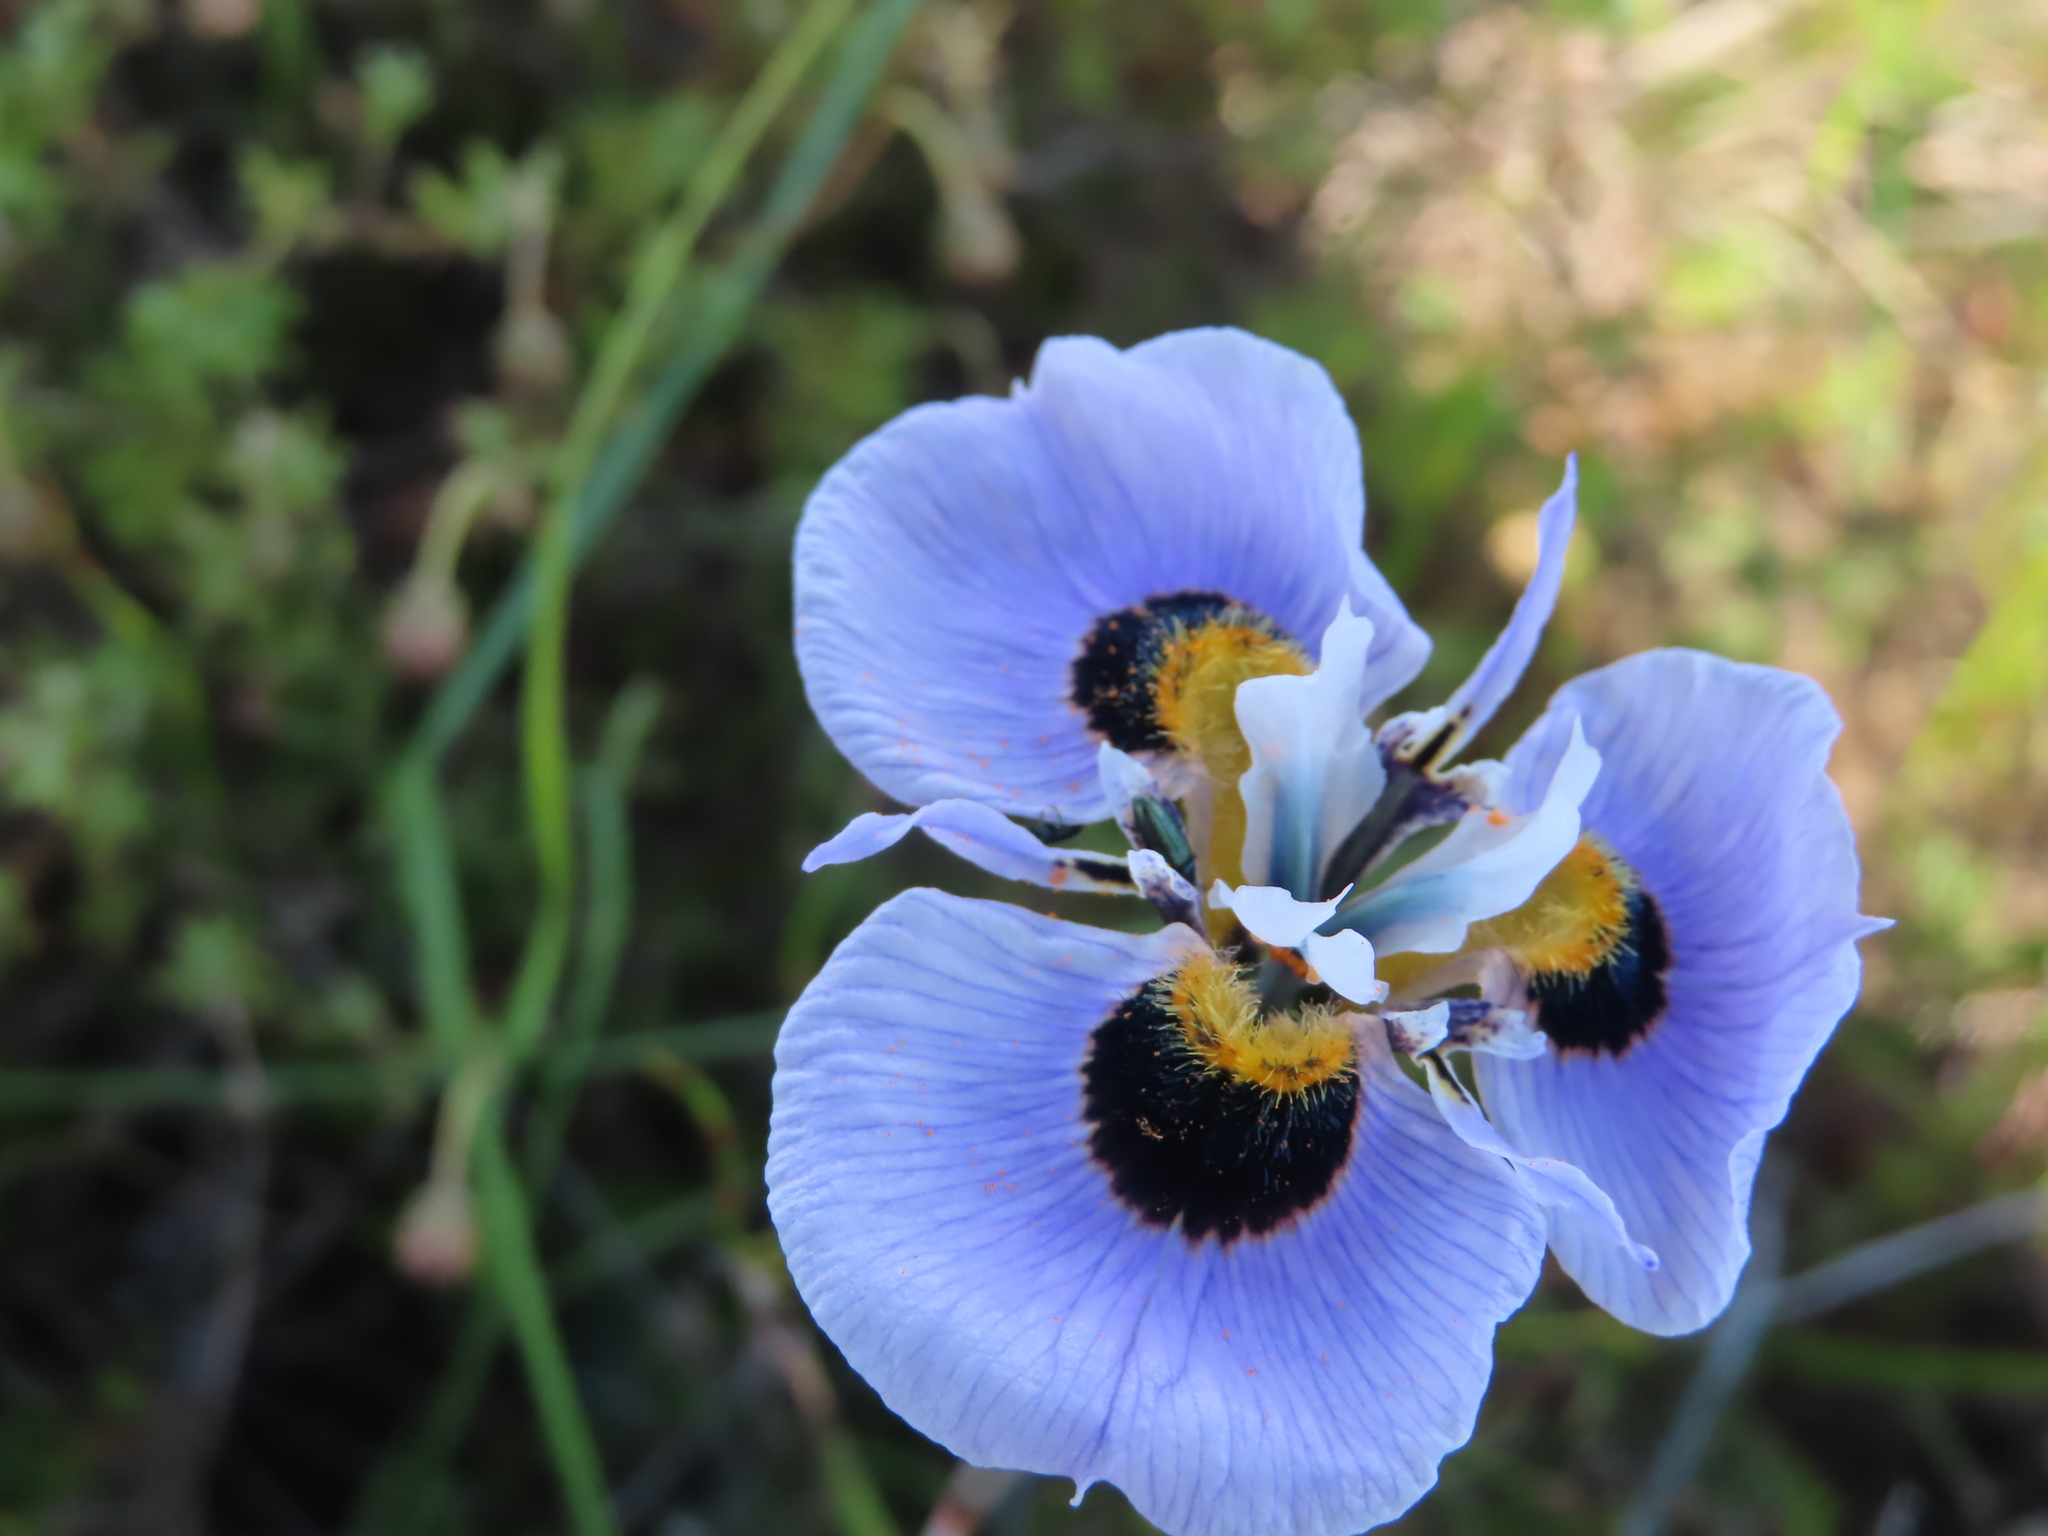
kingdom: Plantae
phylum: Tracheophyta
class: Liliopsida
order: Asparagales
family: Iridaceae
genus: Moraea
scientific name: Moraea villosa
